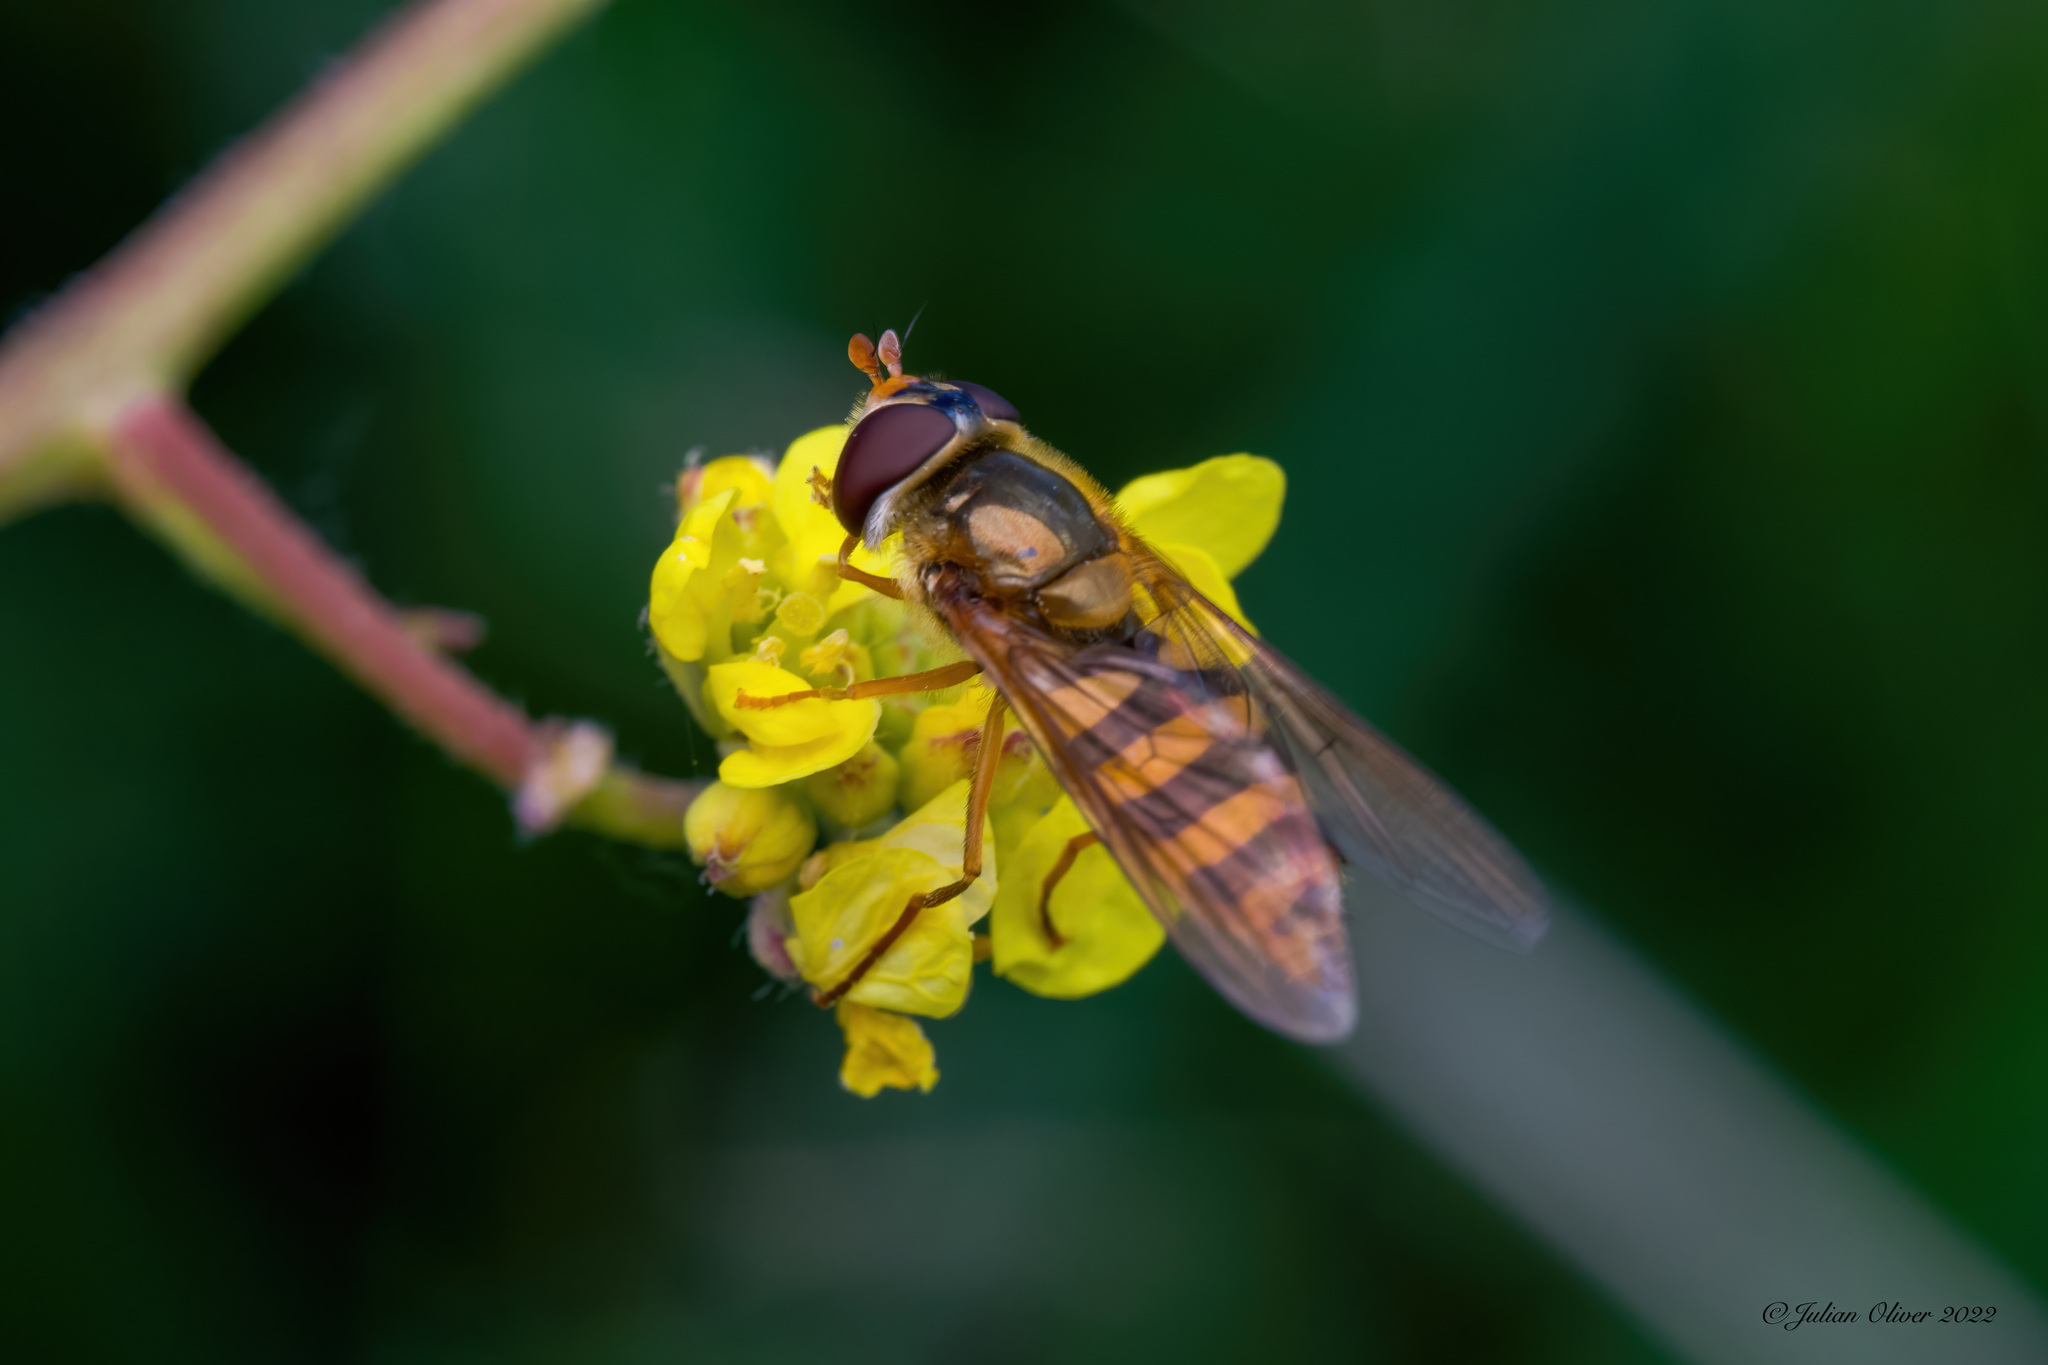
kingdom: Animalia
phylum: Arthropoda
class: Insecta
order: Diptera
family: Syrphidae
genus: Epistrophe
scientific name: Epistrophe nitidicollis
